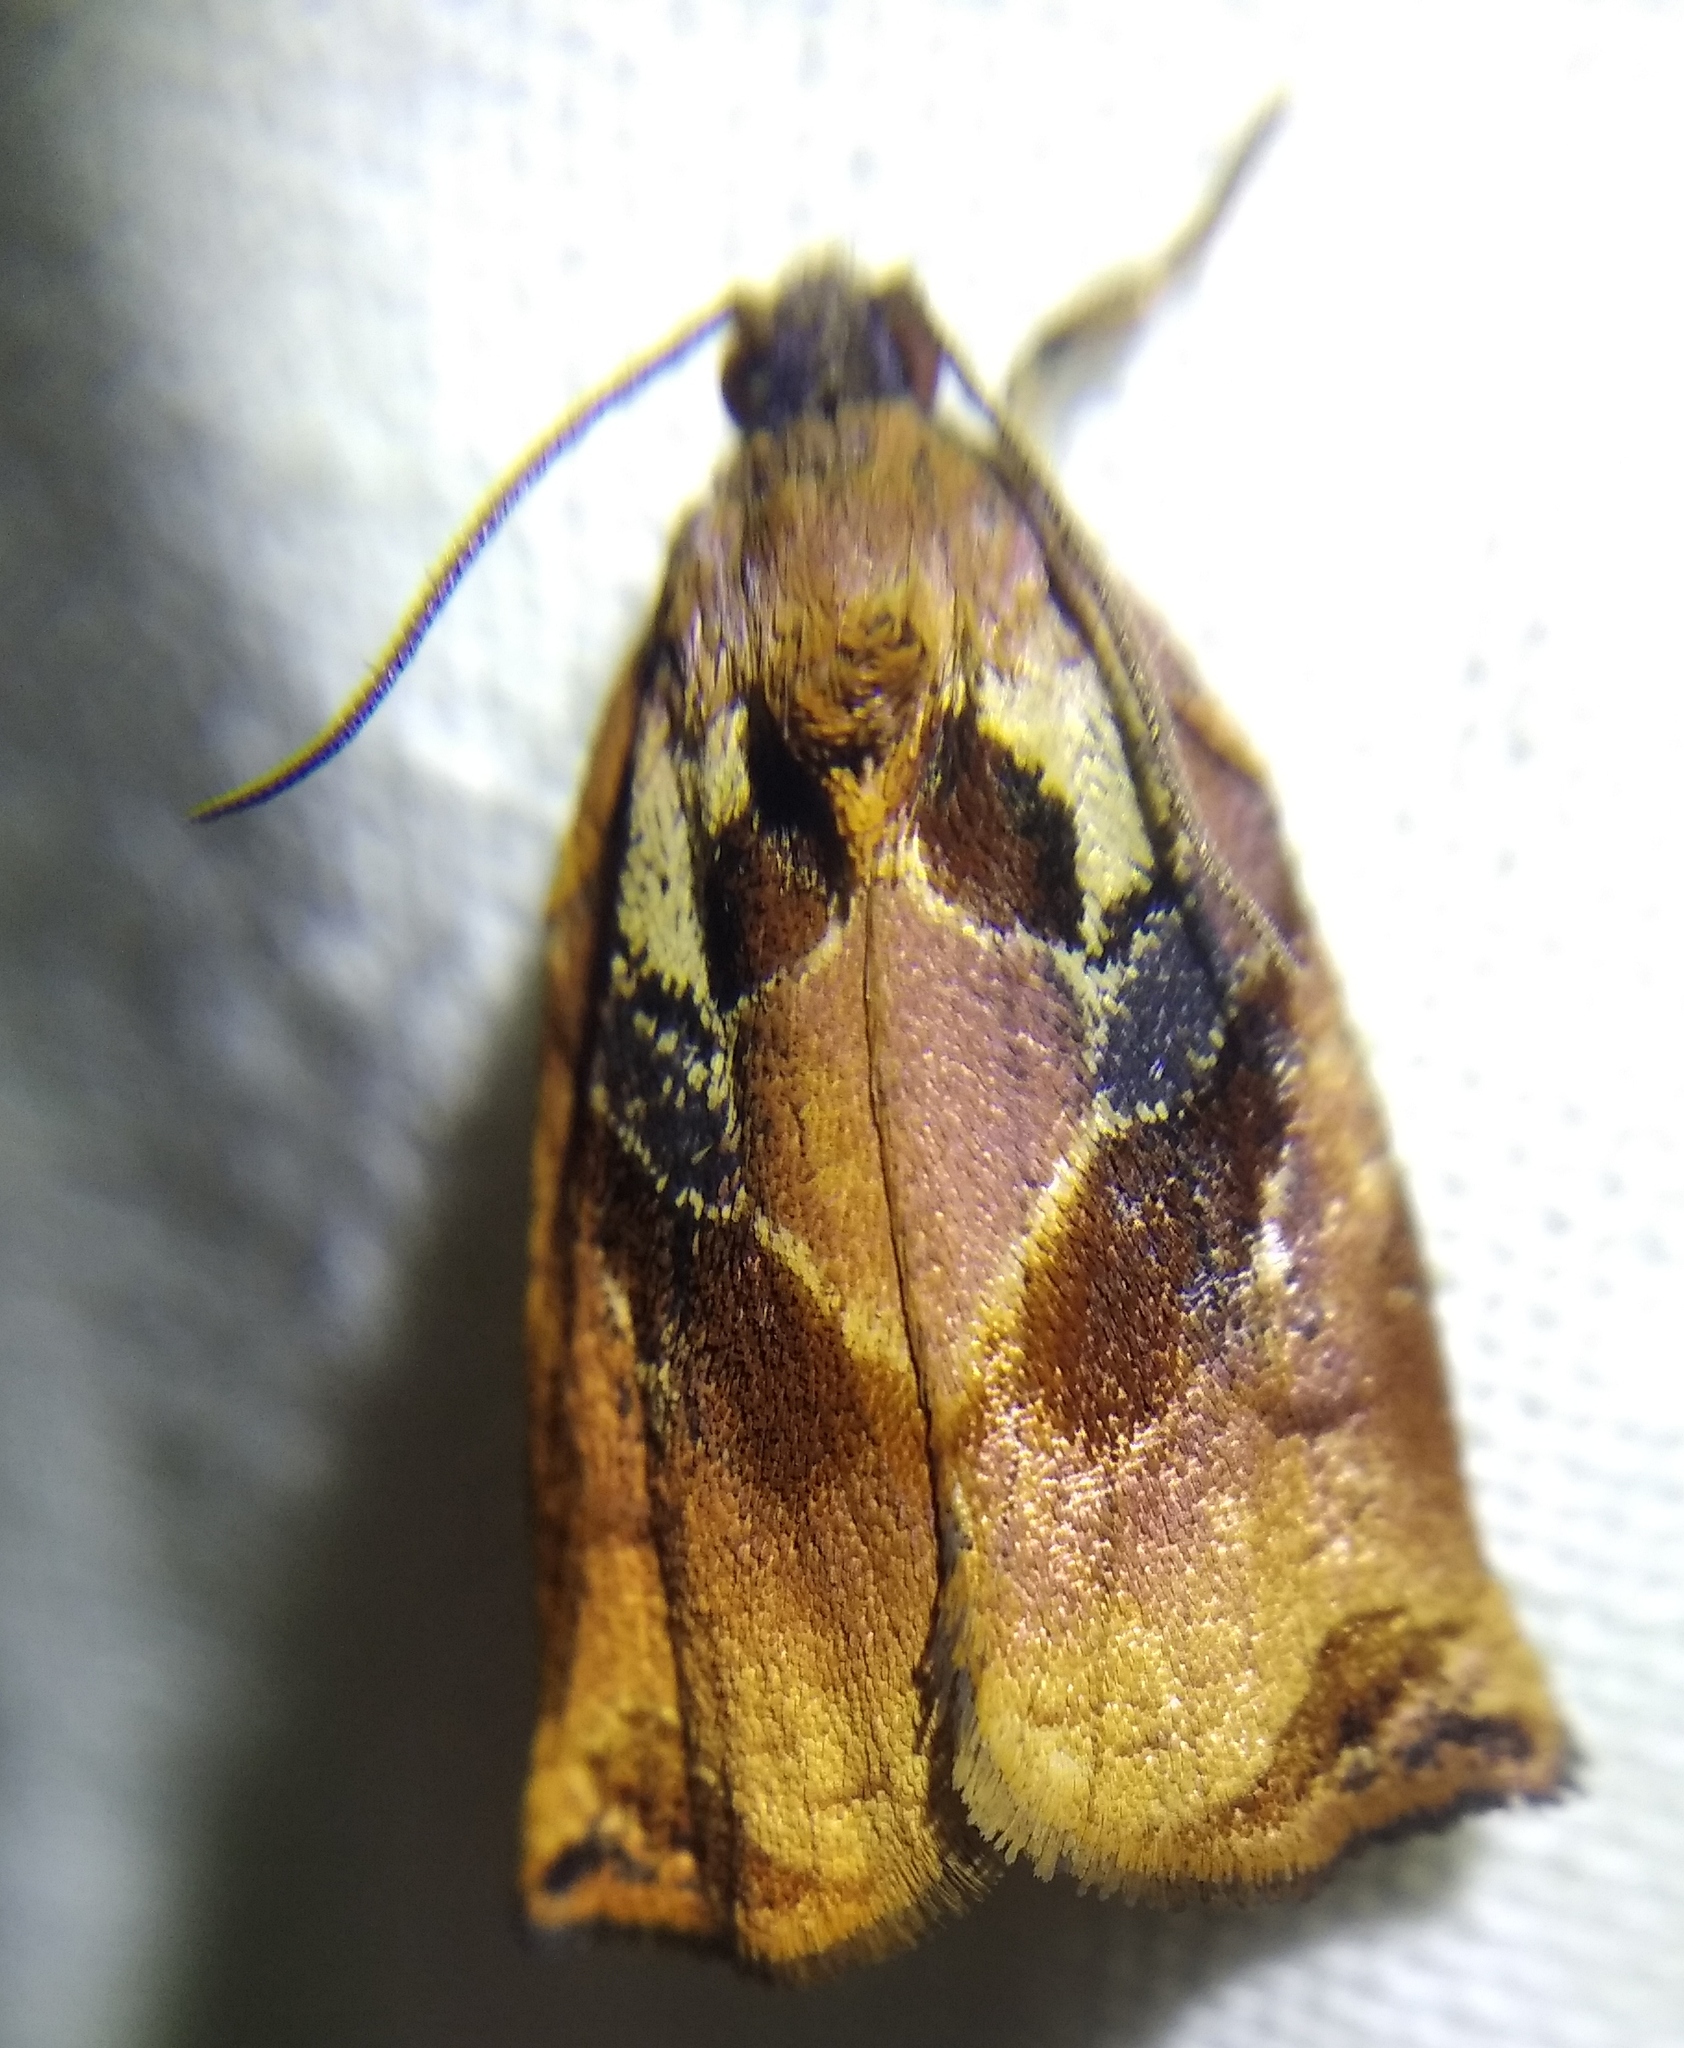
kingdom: Animalia
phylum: Arthropoda
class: Insecta
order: Lepidoptera
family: Tortricidae
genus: Archips
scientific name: Archips podana
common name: Large fruit-tree tortrix
